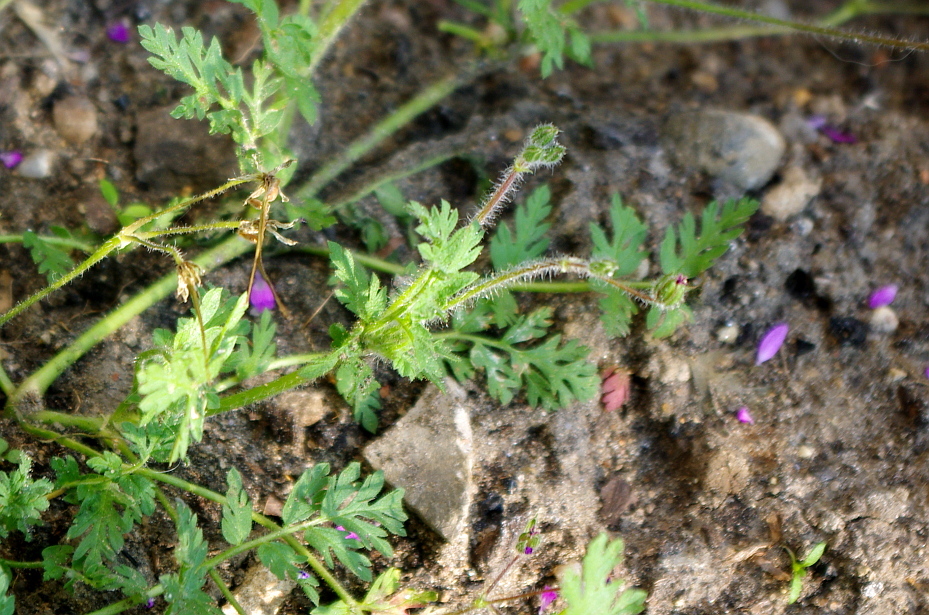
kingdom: Plantae
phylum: Tracheophyta
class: Magnoliopsida
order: Geraniales
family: Geraniaceae
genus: Erodium
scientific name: Erodium cicutarium
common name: Common stork's-bill
